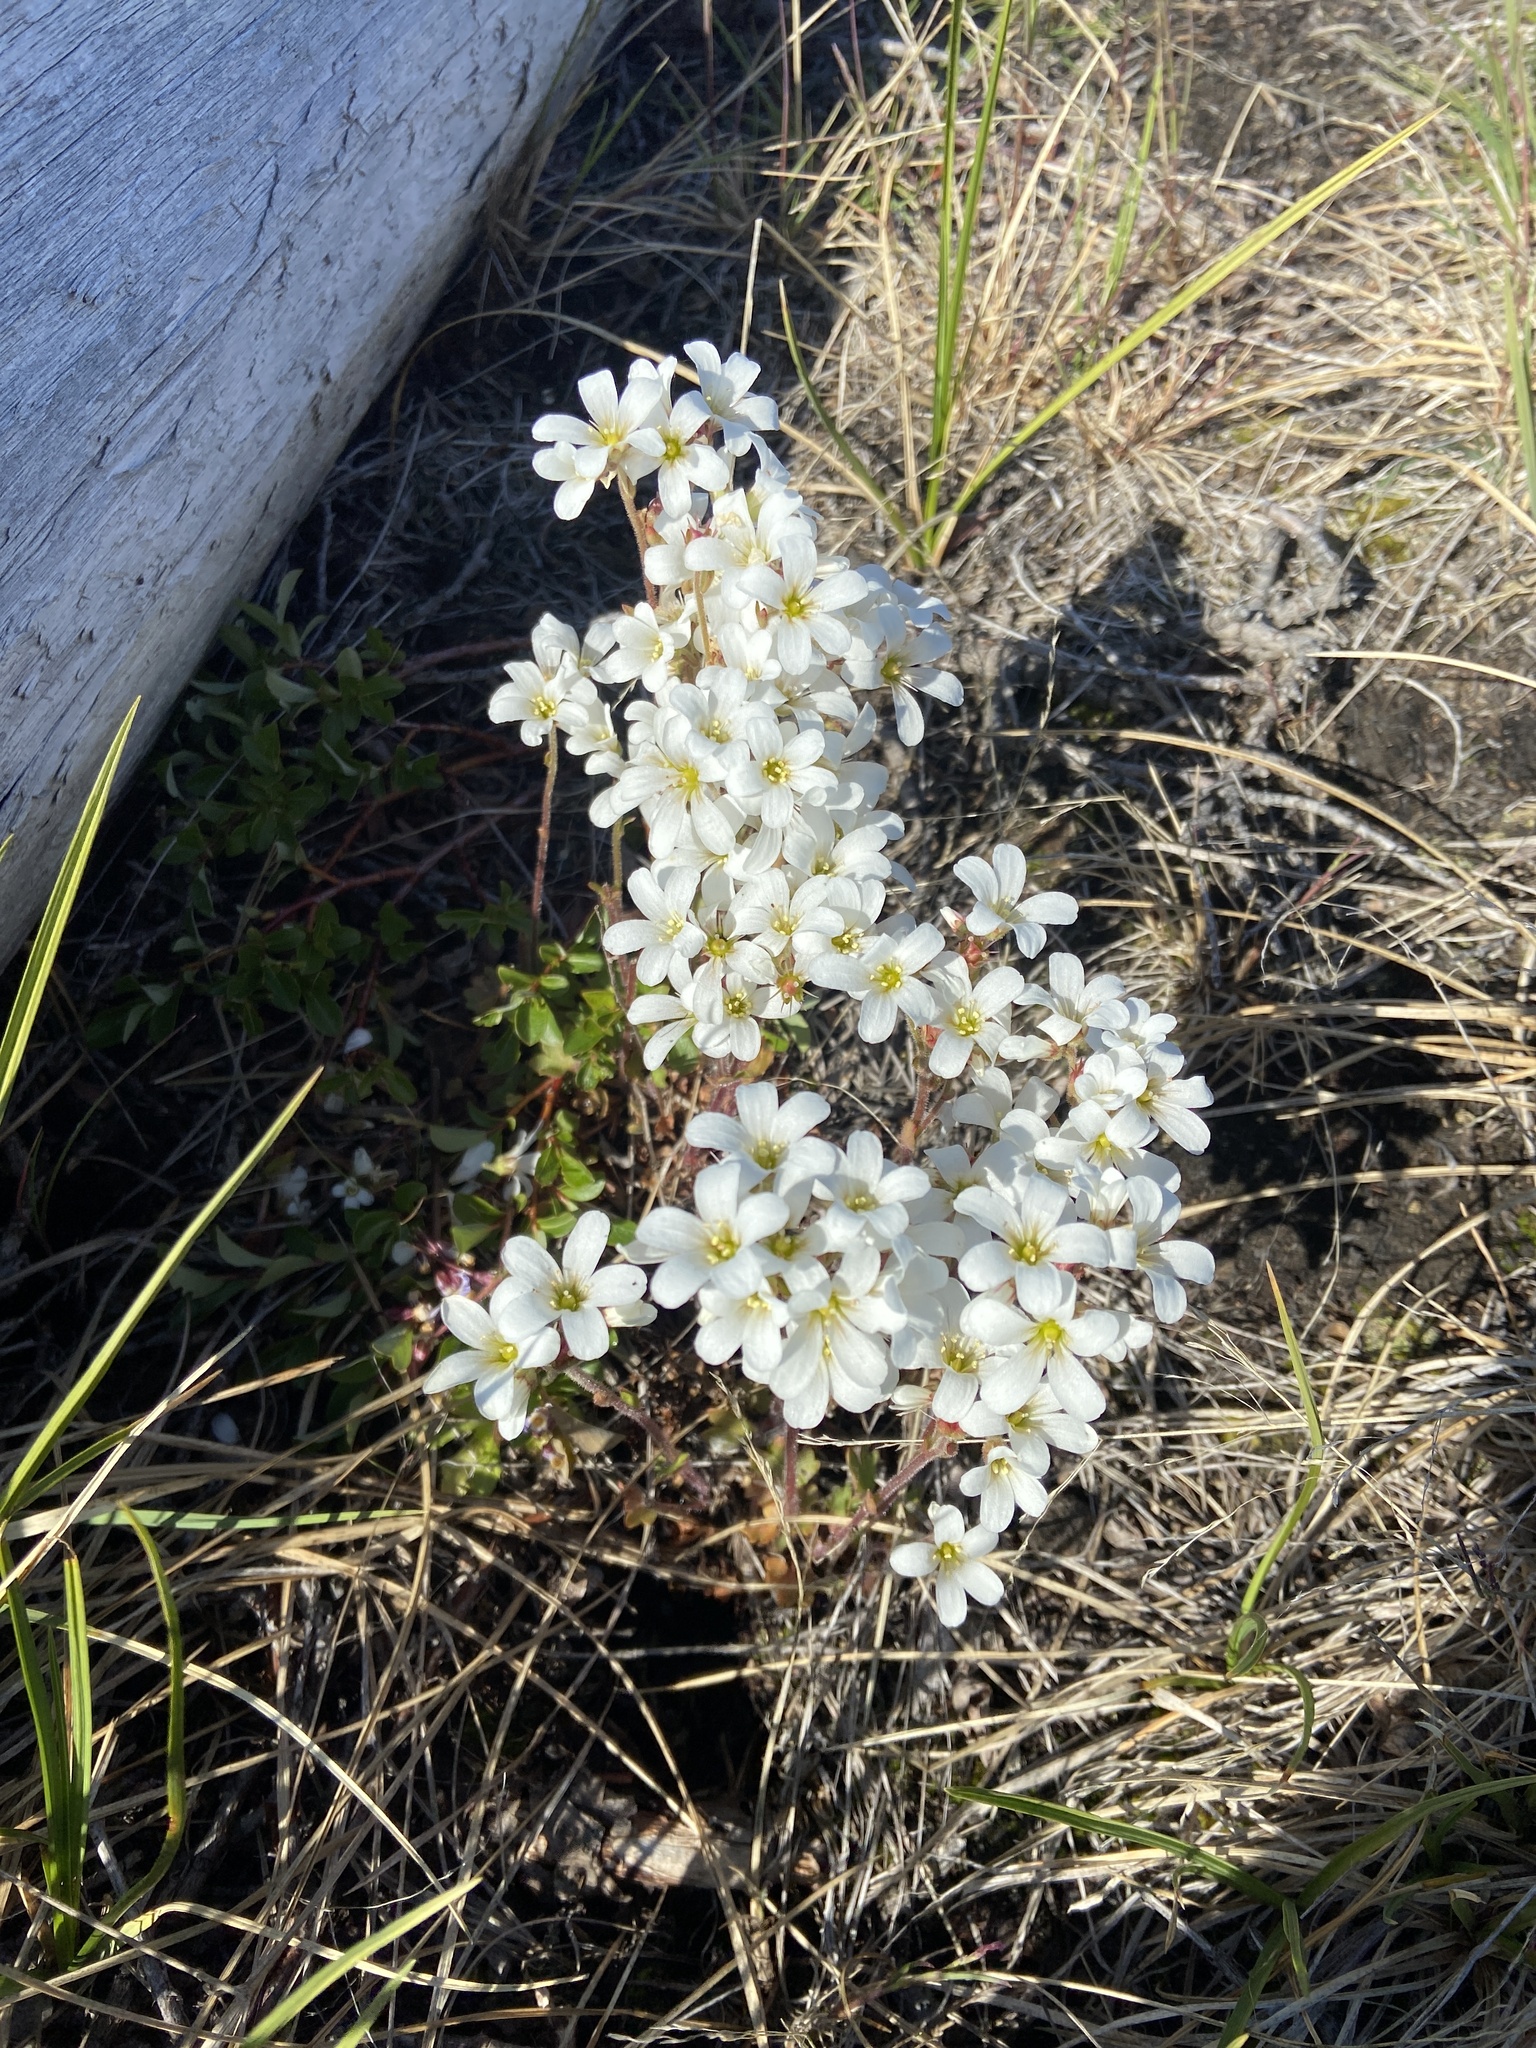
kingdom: Plantae
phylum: Tracheophyta
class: Magnoliopsida
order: Saxifragales
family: Saxifragaceae
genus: Saxifraga
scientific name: Saxifraga sibirica
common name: Siberian saxifrage
